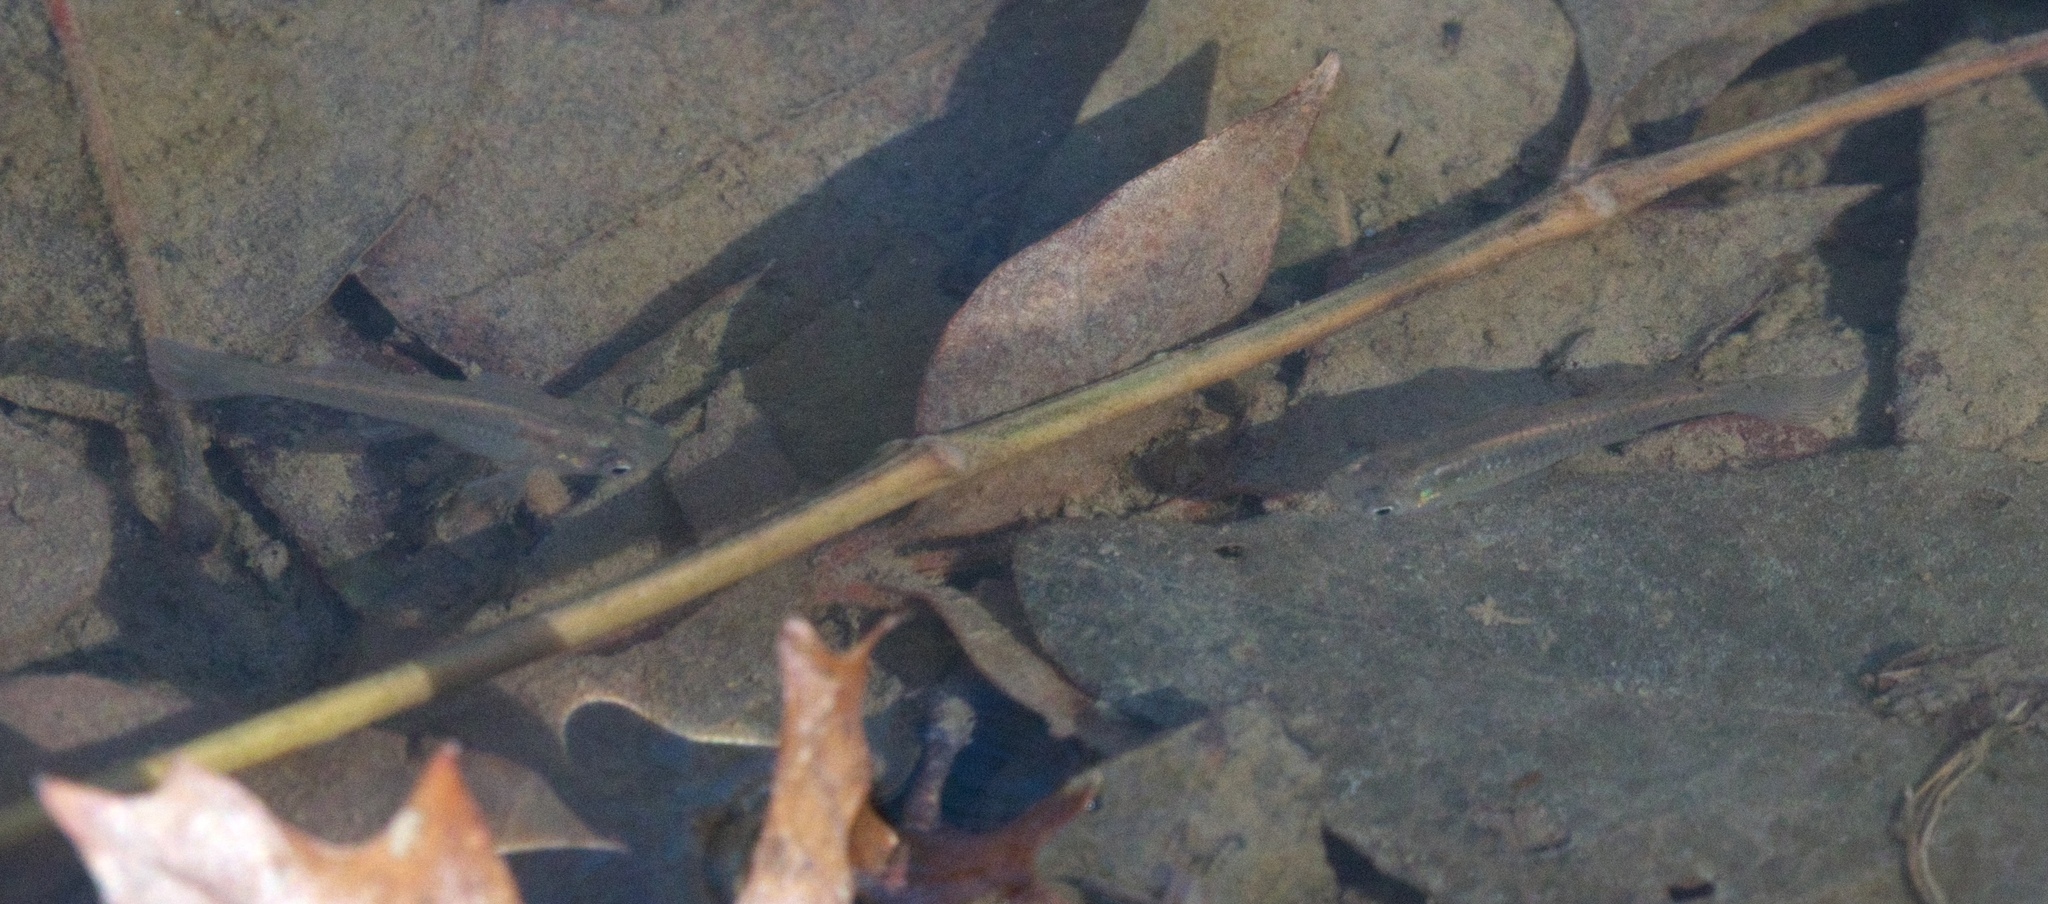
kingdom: Animalia
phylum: Chordata
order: Cyprinodontiformes
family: Poeciliidae
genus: Gambusia
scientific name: Gambusia affinis
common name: Mosquitofish
